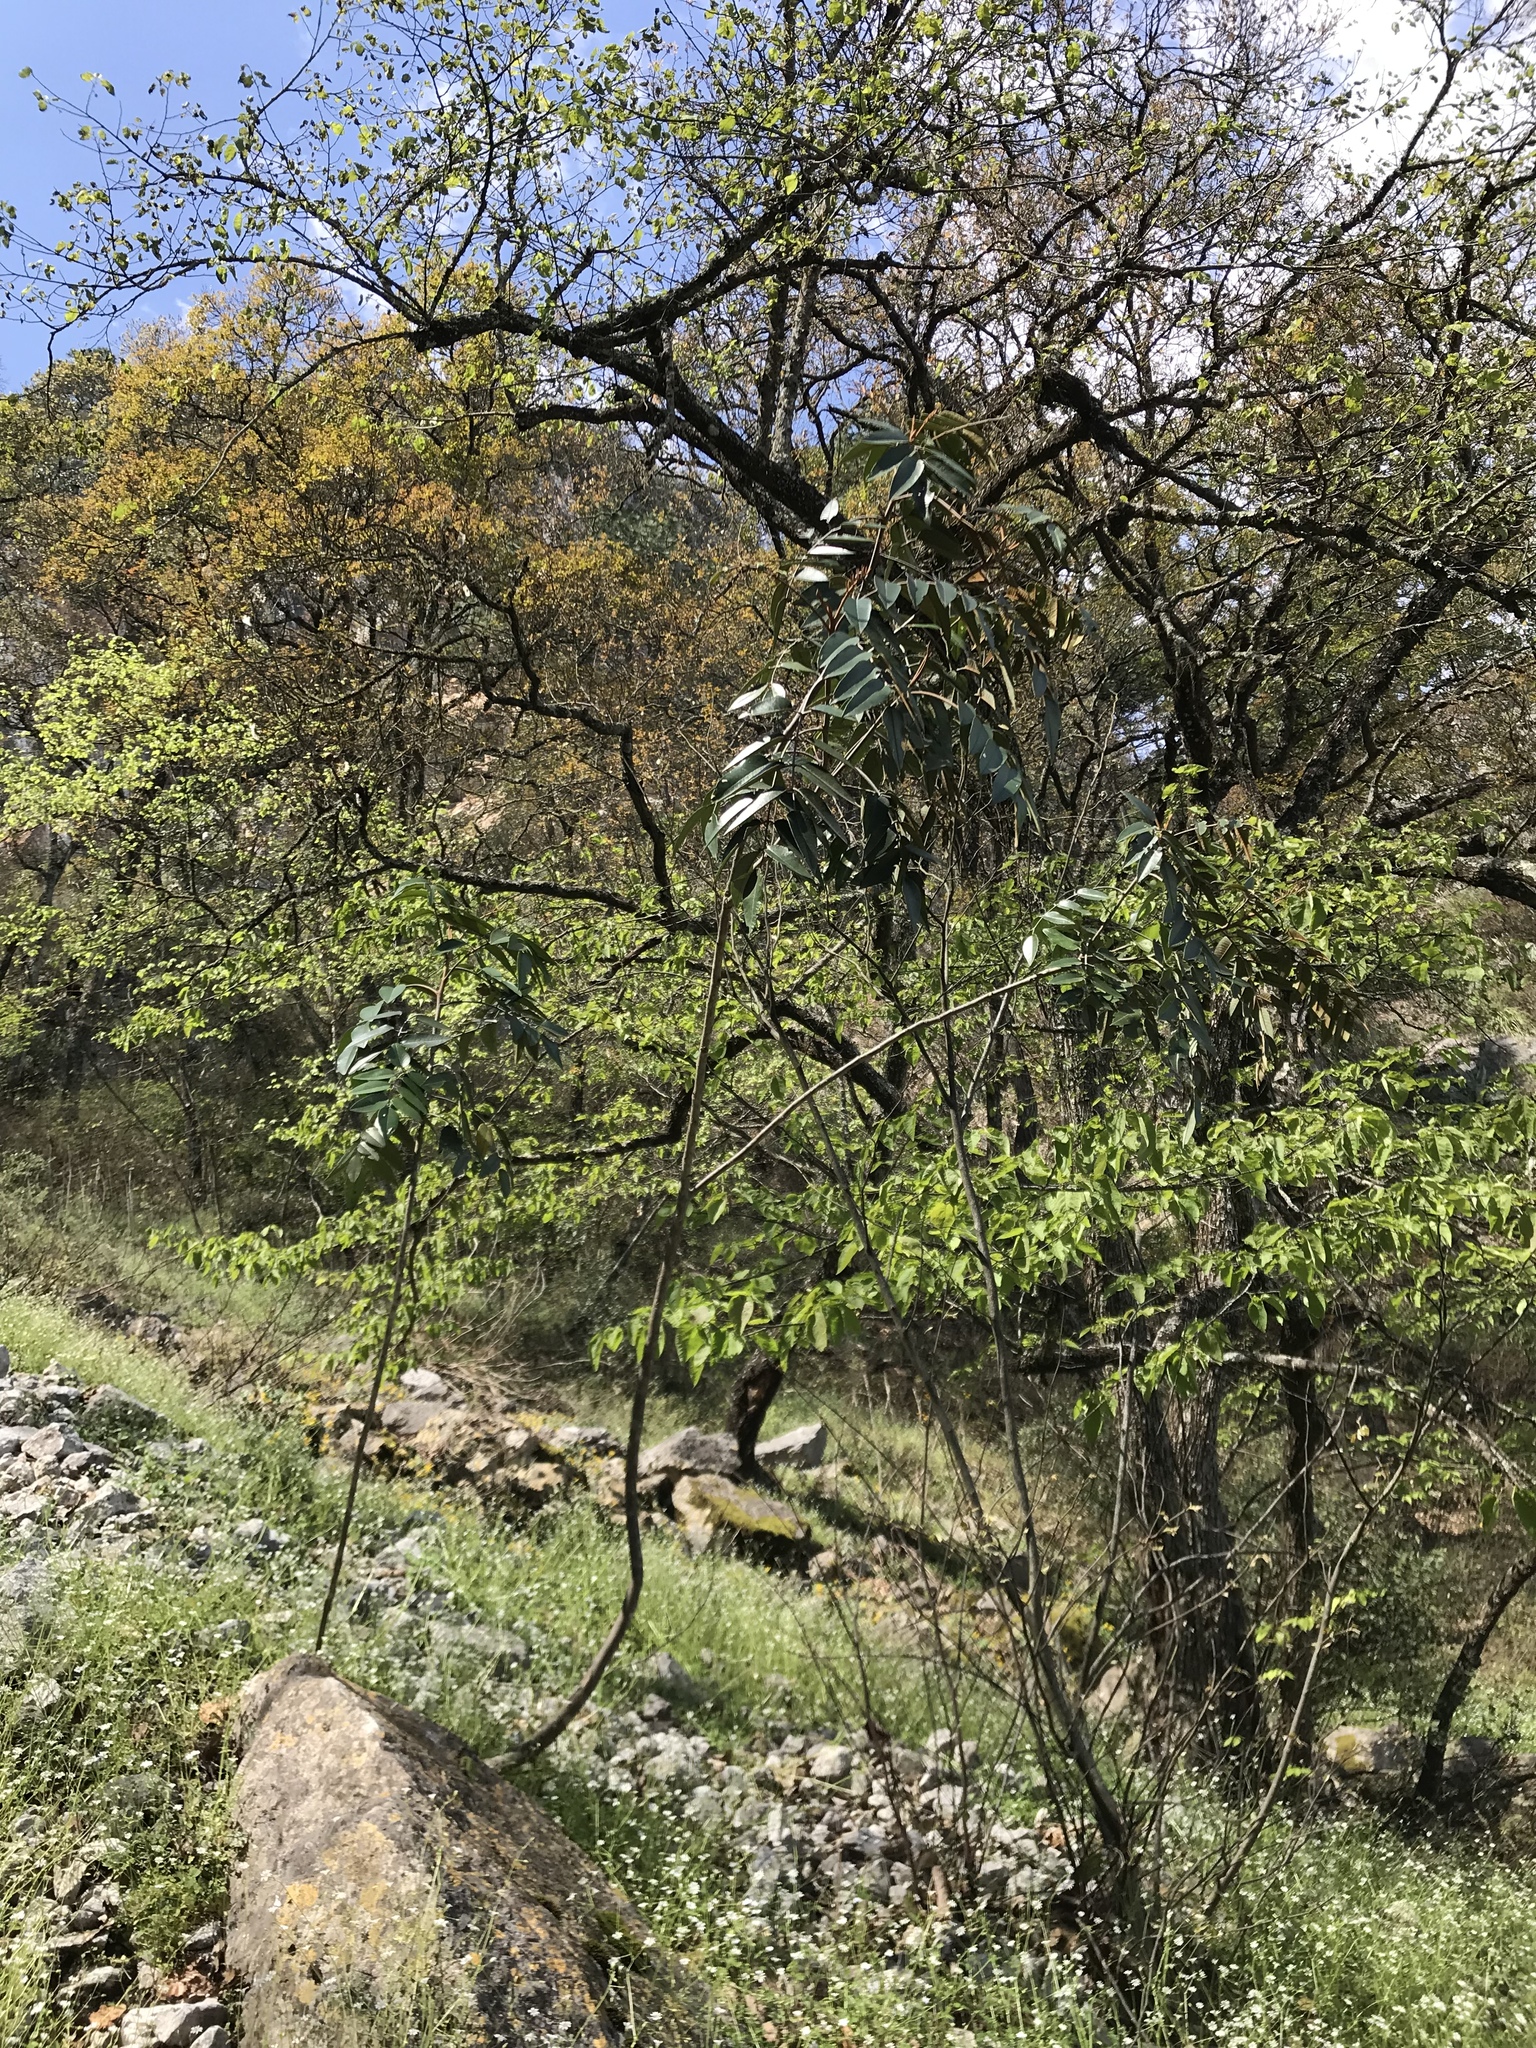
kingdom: Plantae
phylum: Tracheophyta
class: Magnoliopsida
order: Sapindales
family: Rutaceae
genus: Decatropis
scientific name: Decatropis bicolor
